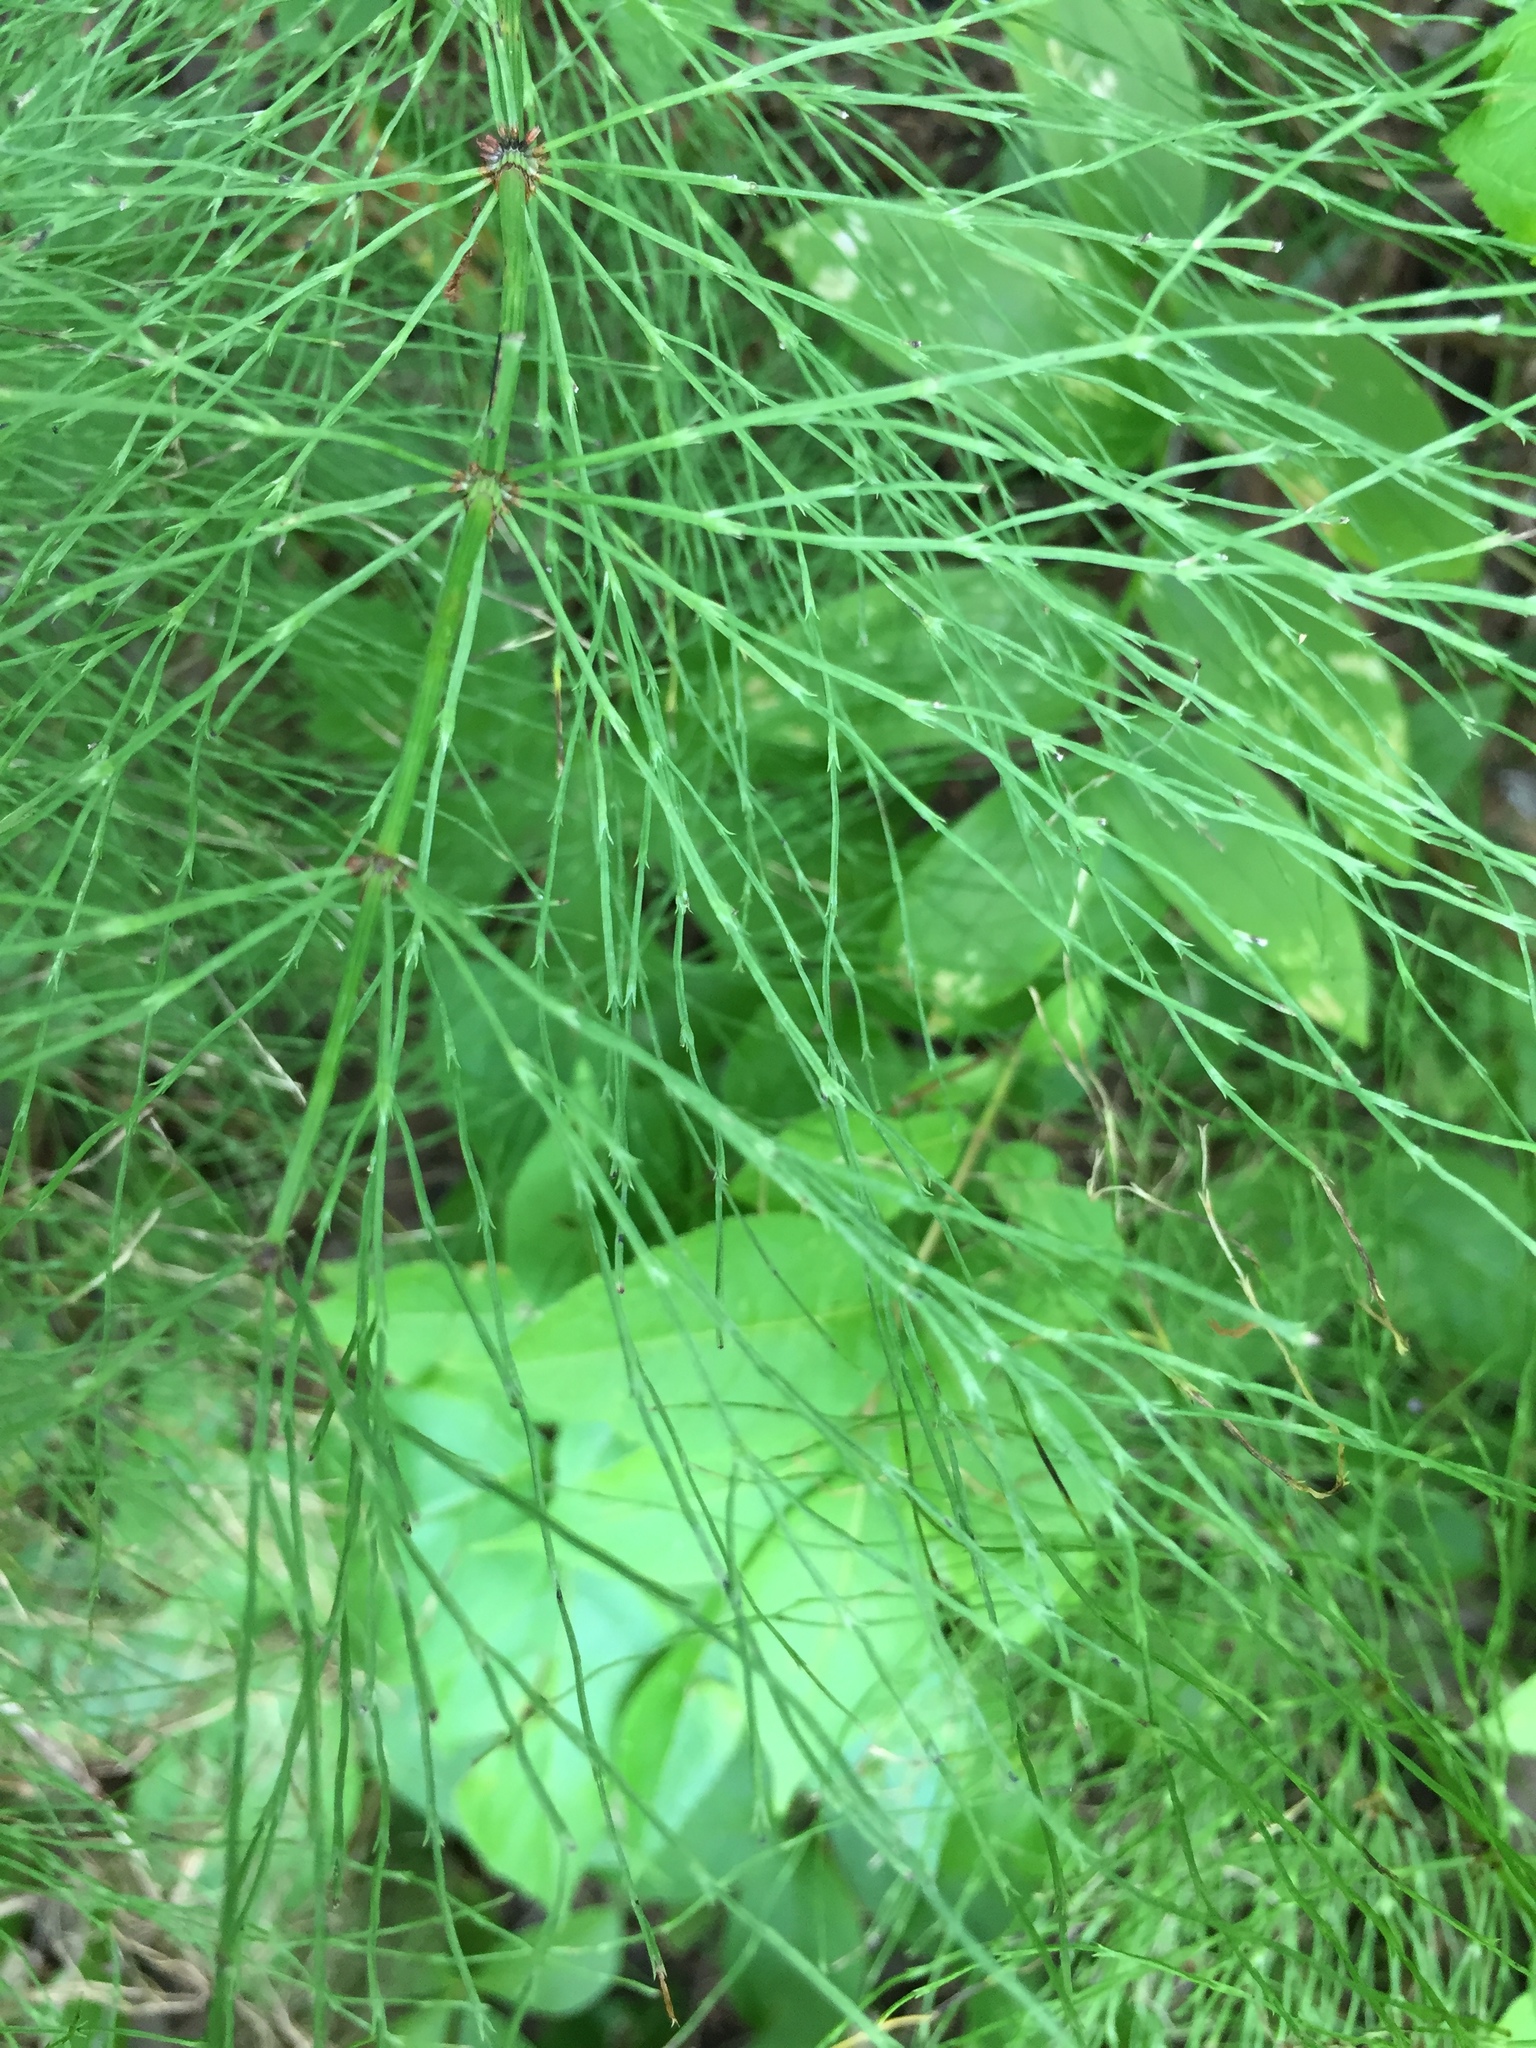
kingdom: Plantae
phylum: Tracheophyta
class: Polypodiopsida
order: Equisetales
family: Equisetaceae
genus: Equisetum
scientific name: Equisetum sylvaticum
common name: Wood horsetail
